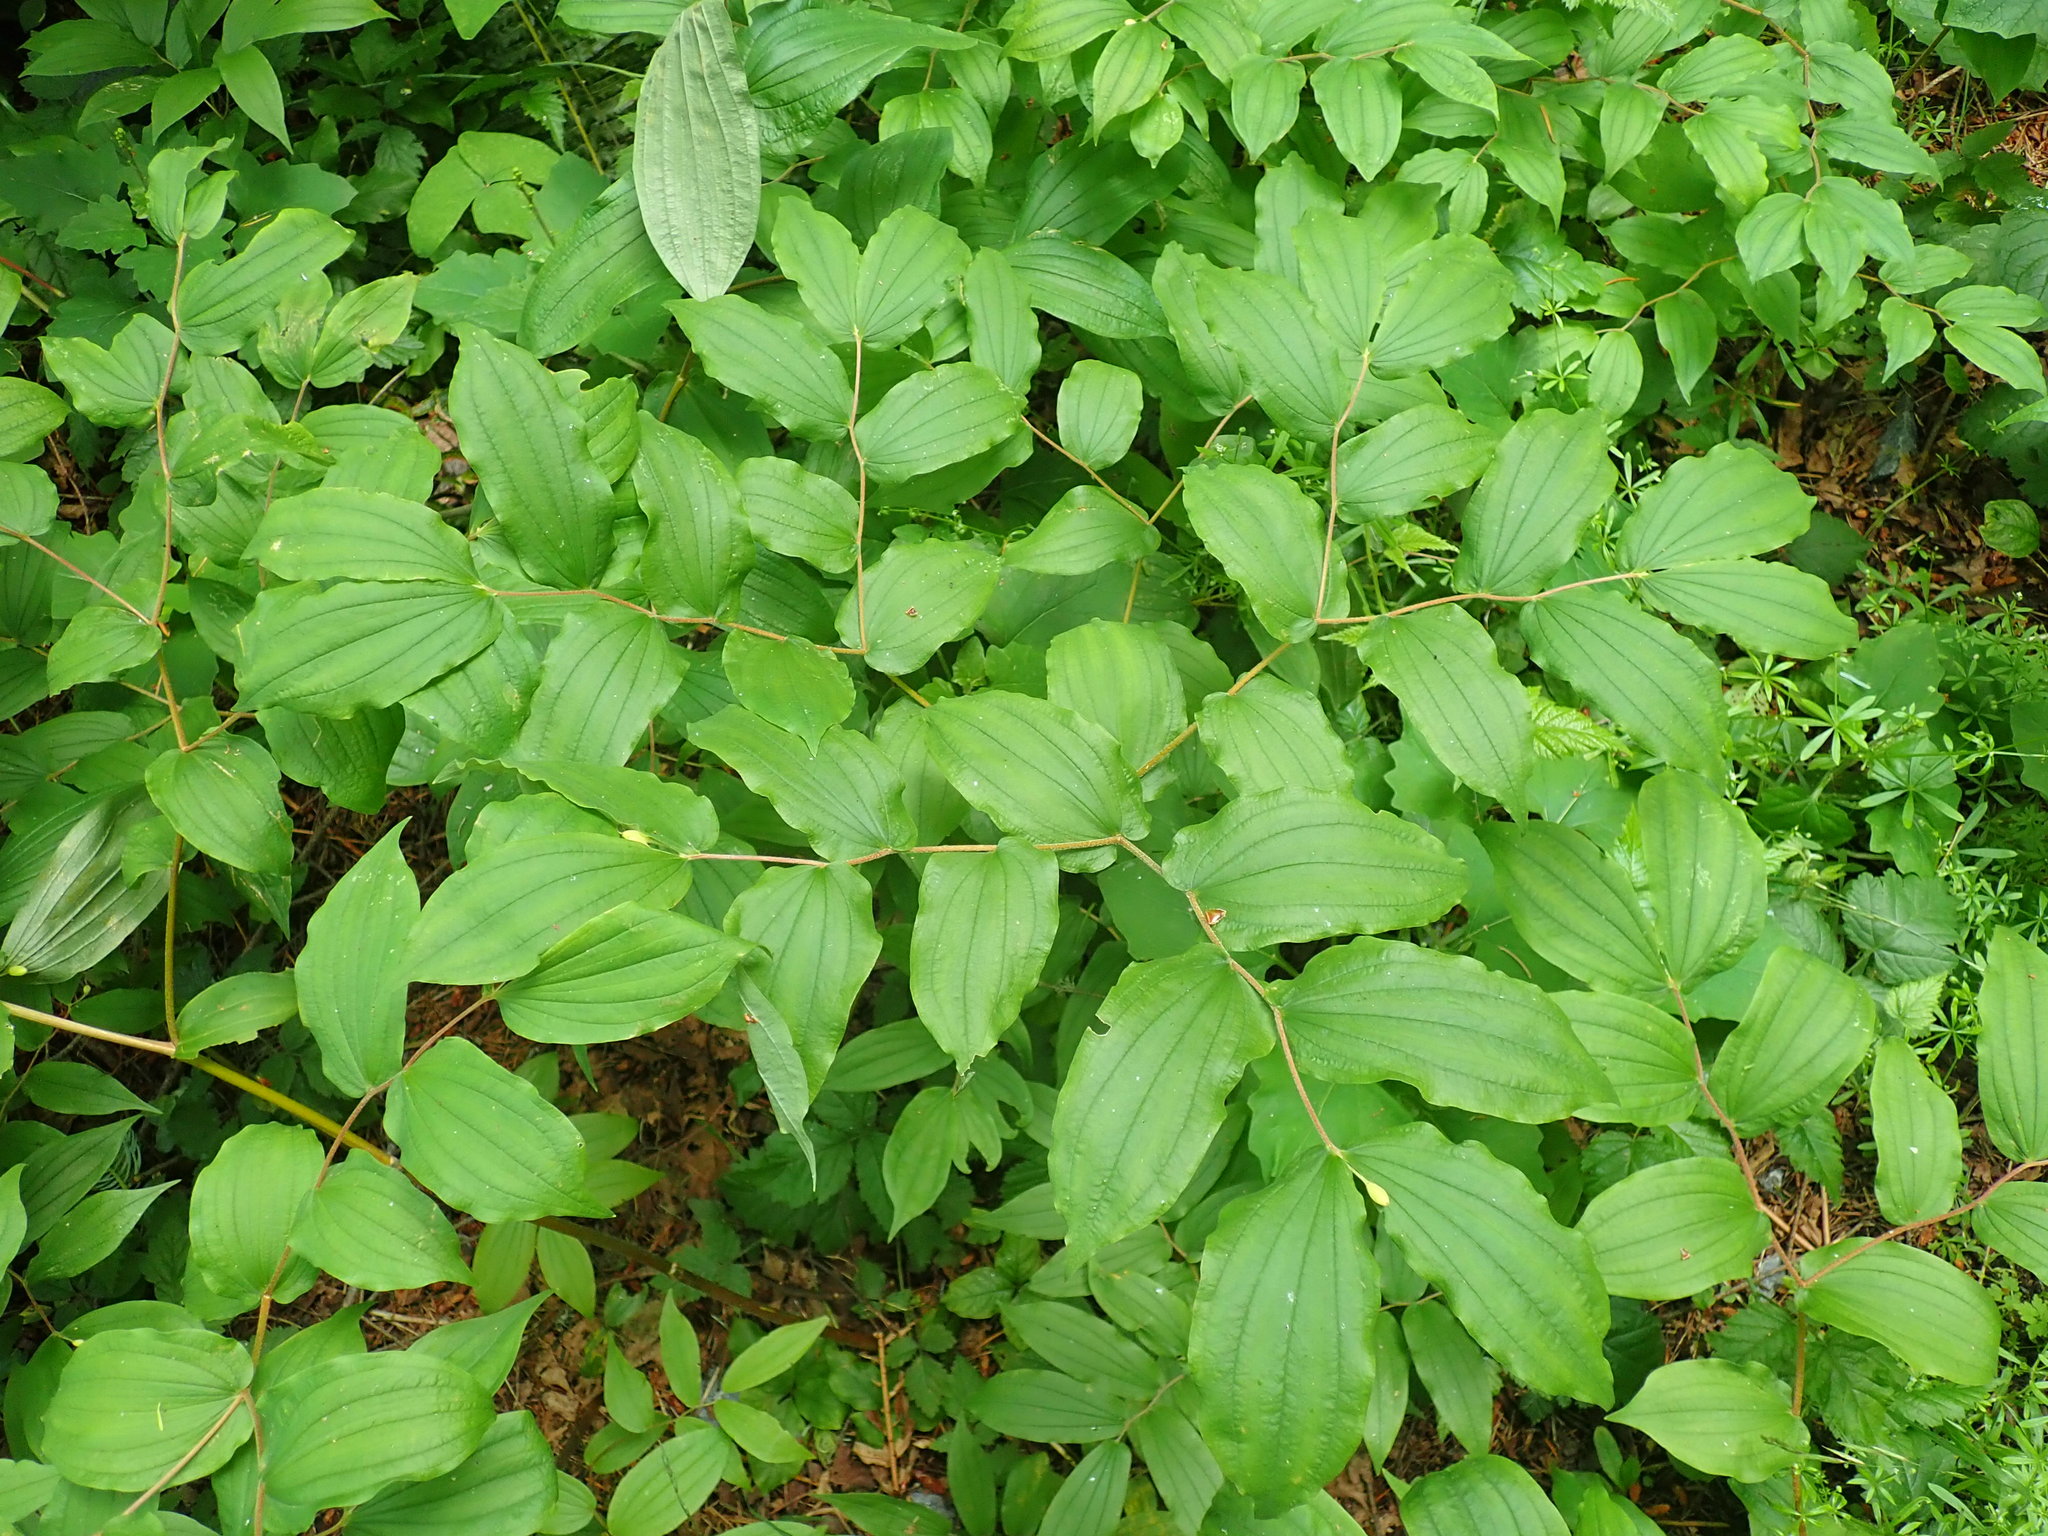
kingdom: Plantae
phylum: Tracheophyta
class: Liliopsida
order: Liliales
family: Liliaceae
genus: Prosartes
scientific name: Prosartes hookeri
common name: Fairy-bells
